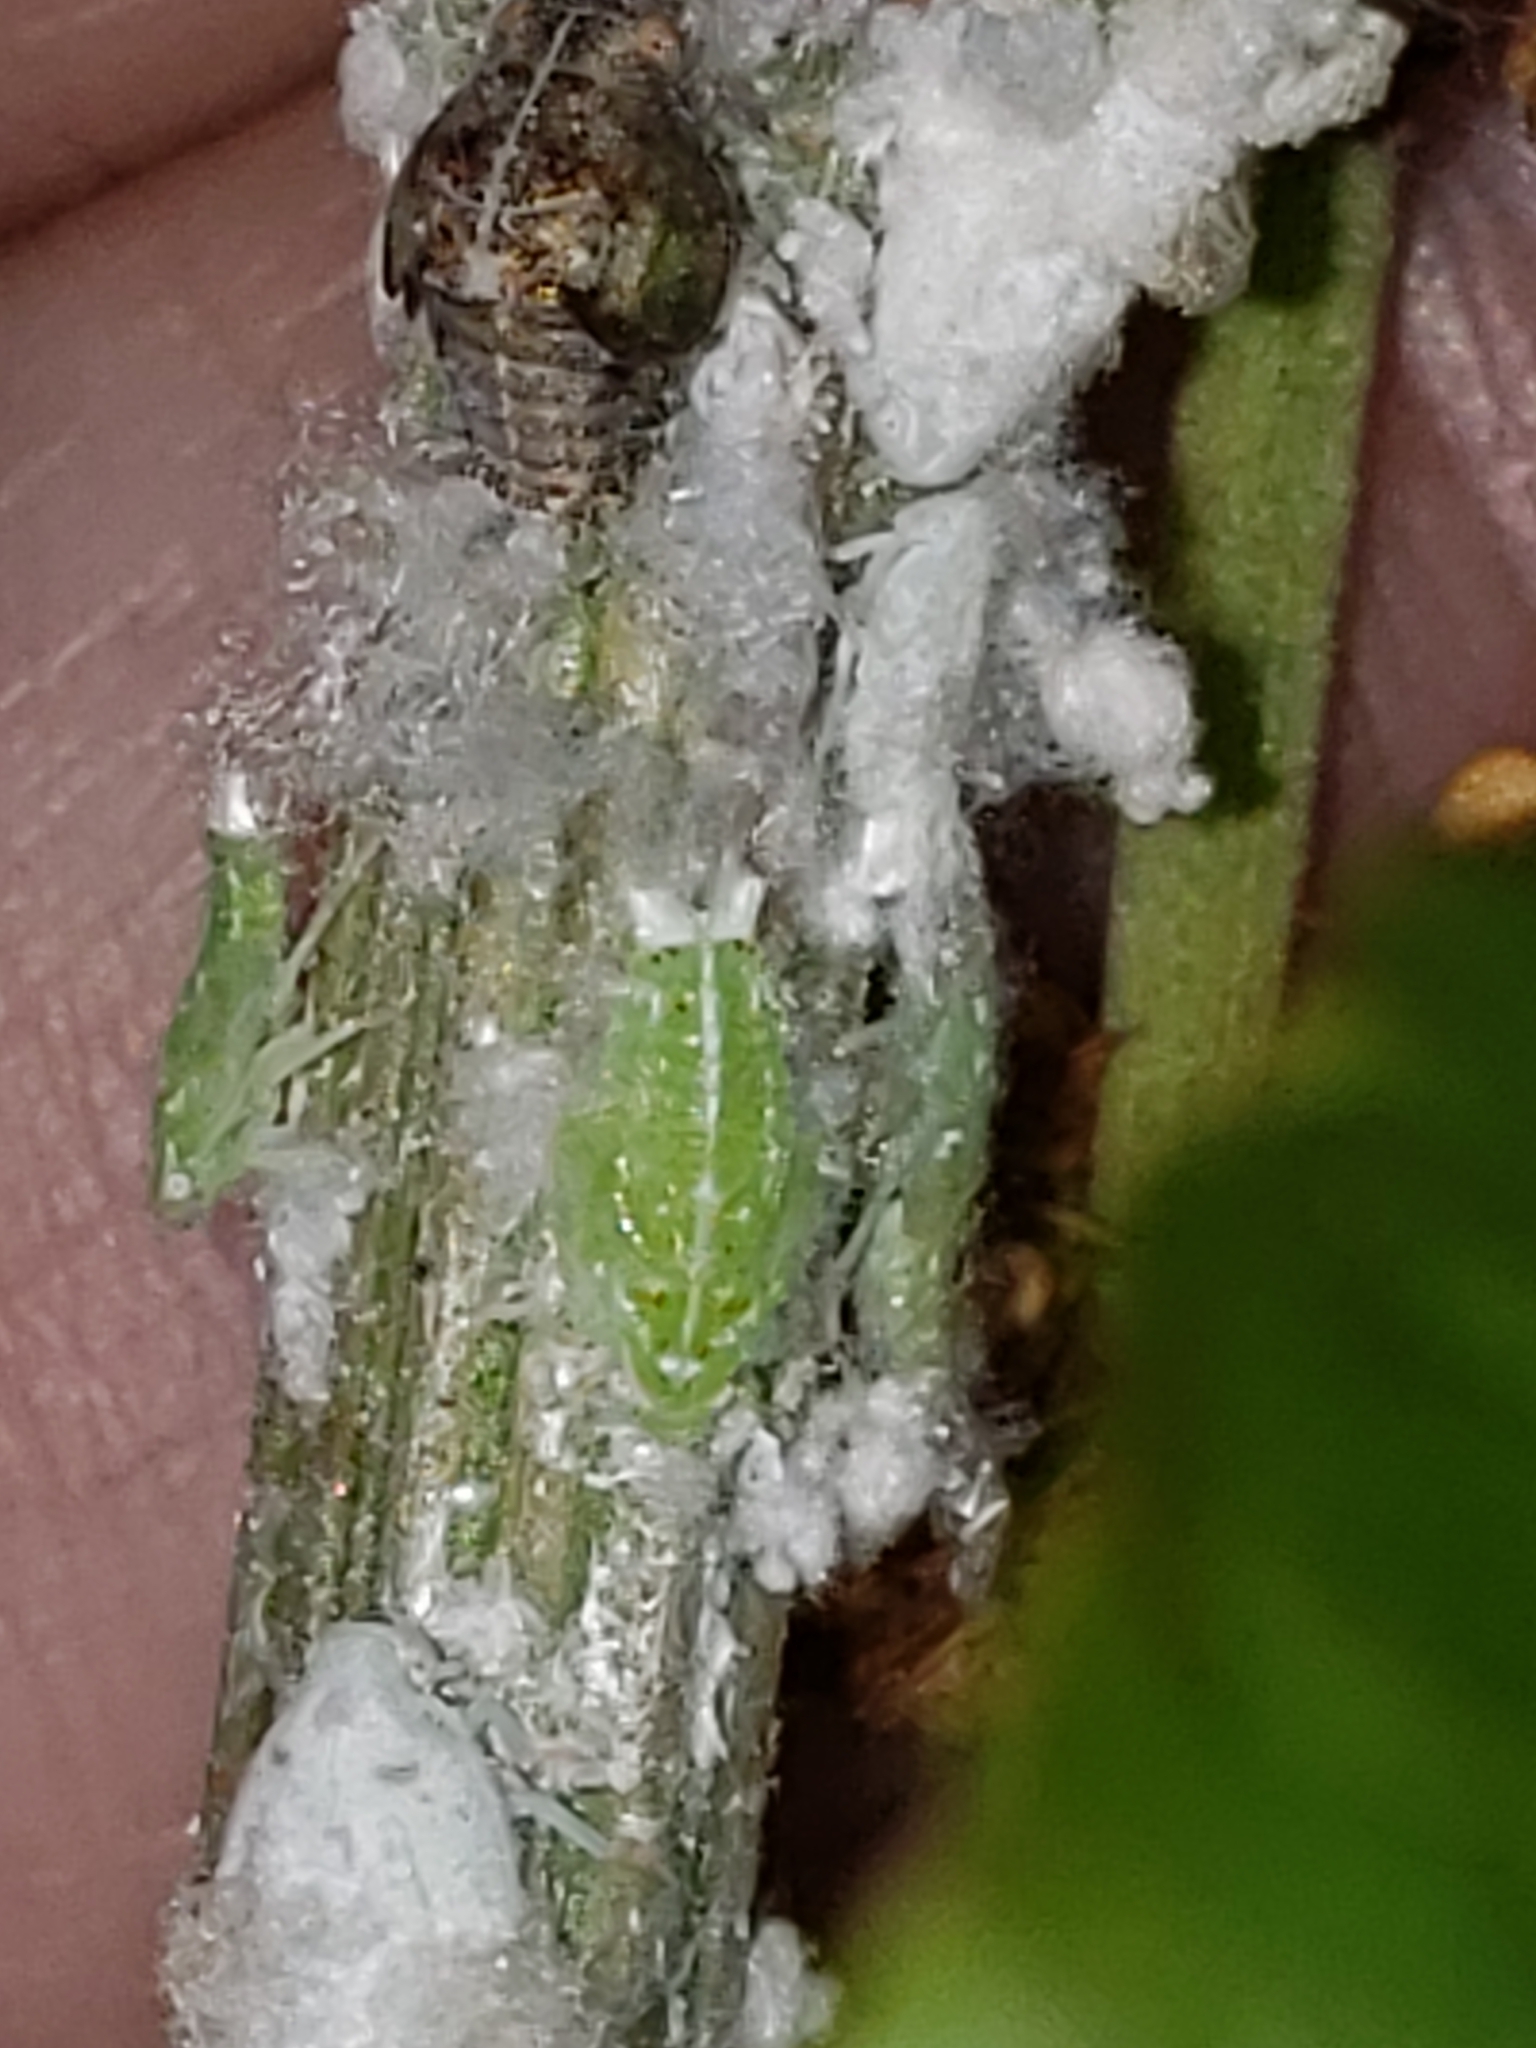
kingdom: Animalia
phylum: Arthropoda
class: Insecta
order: Hemiptera
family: Flatidae
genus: Ormenoides
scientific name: Ormenoides venusta
